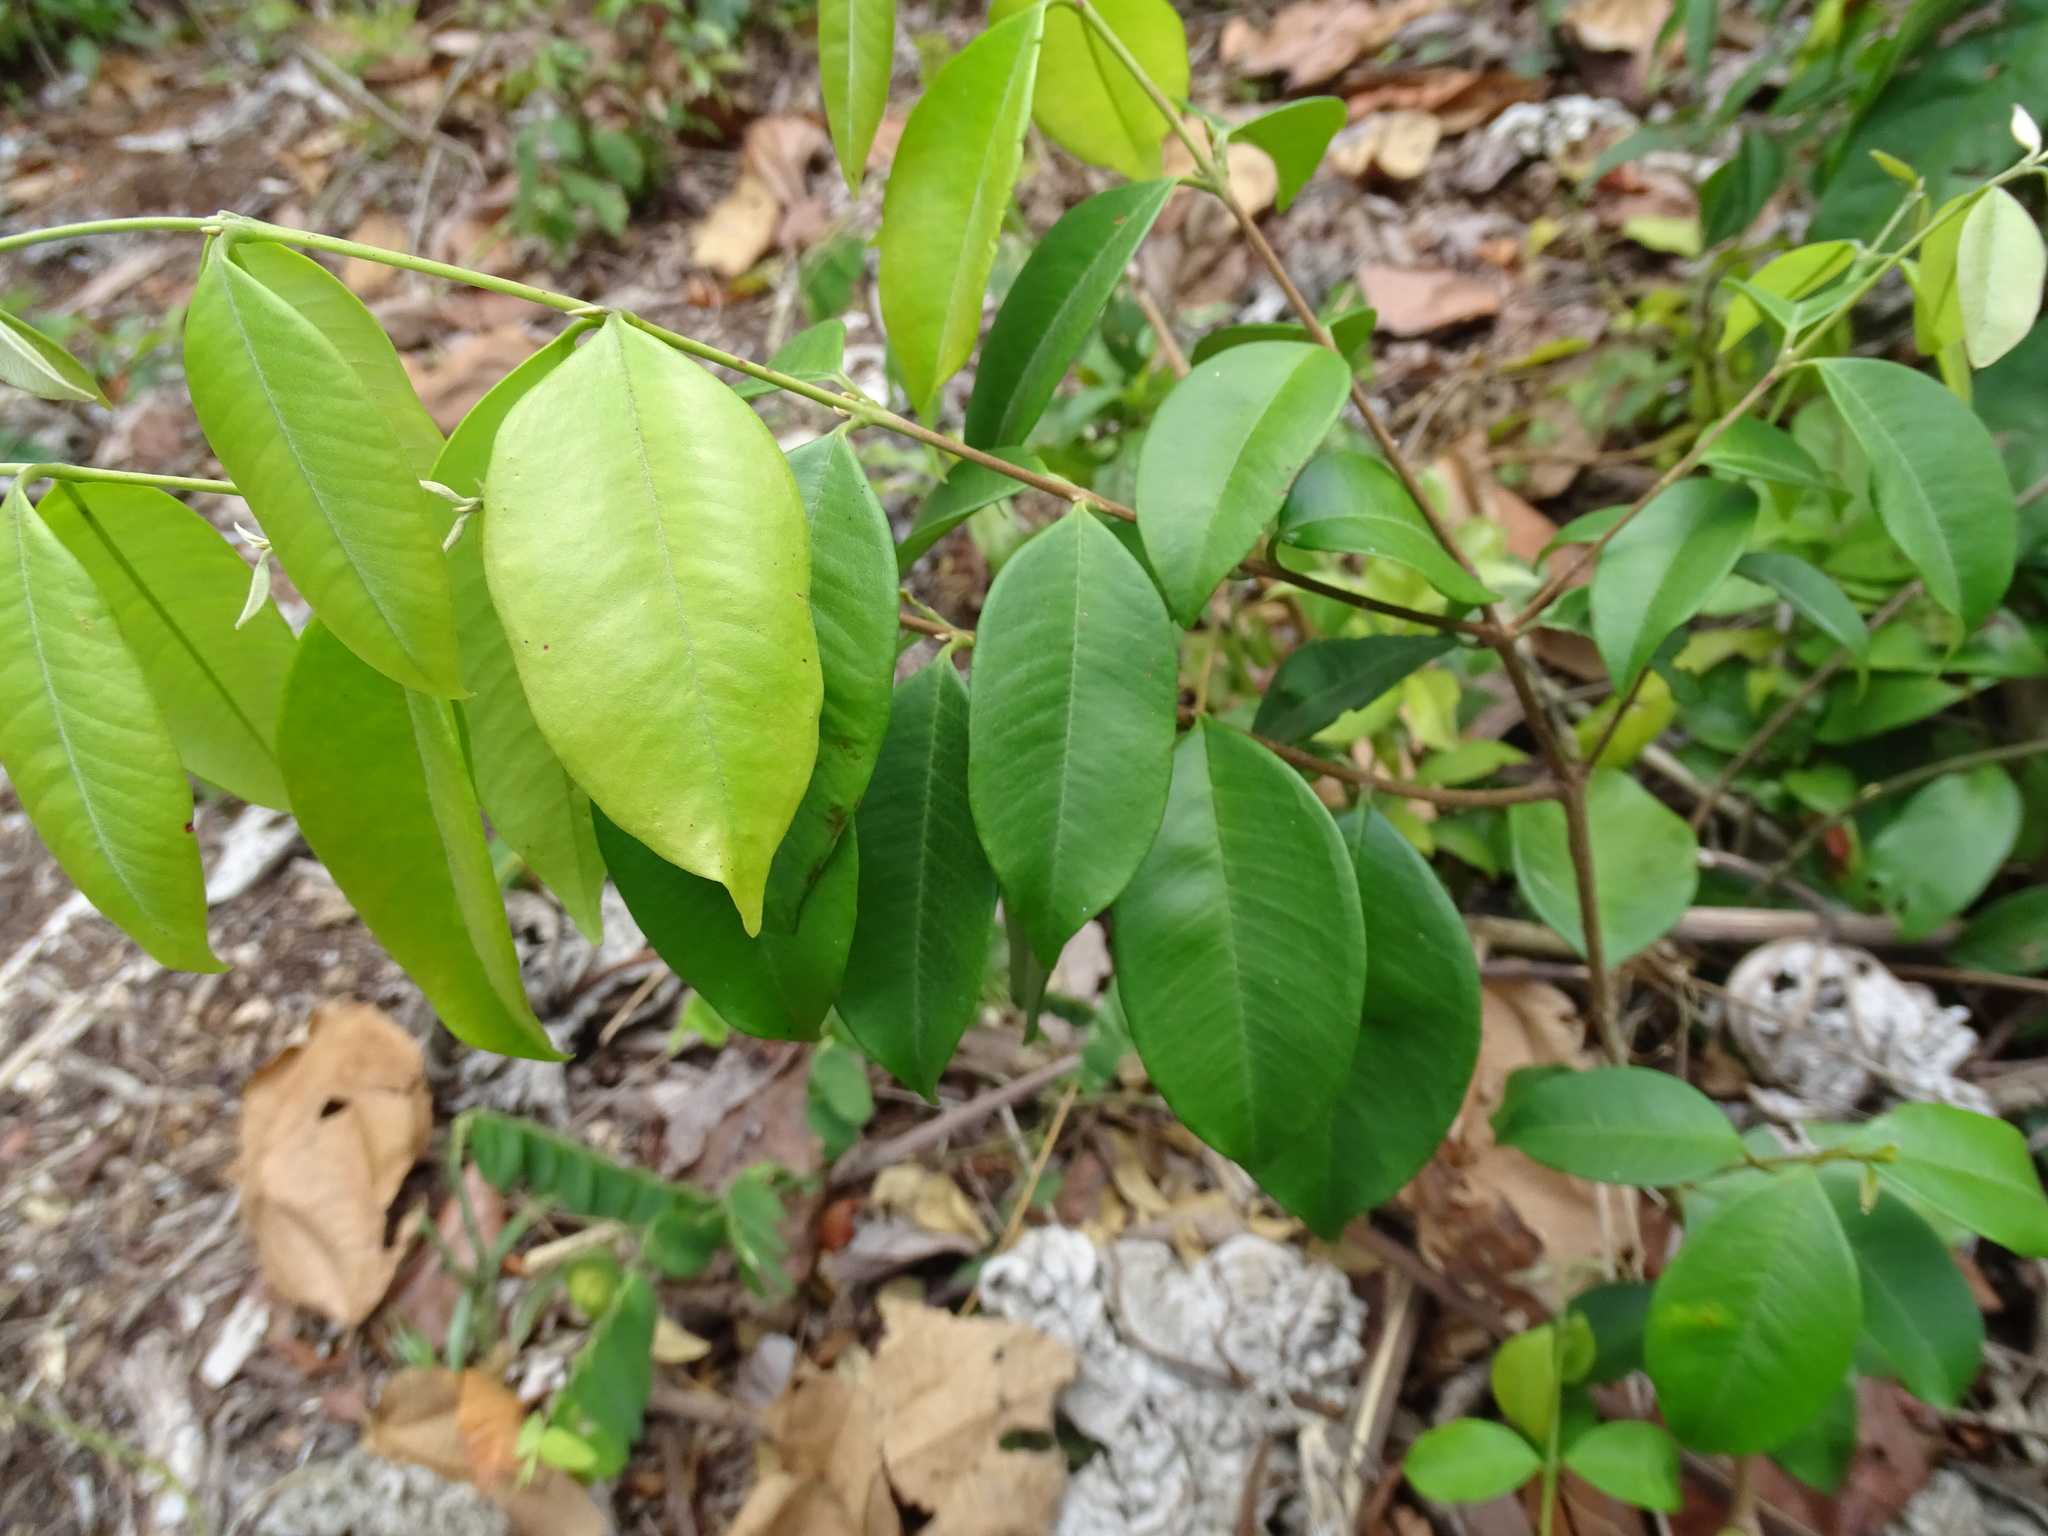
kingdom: Plantae
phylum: Tracheophyta
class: Magnoliopsida
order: Myrtales
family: Myrtaceae
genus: Psidium
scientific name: Psidium sartorianum
